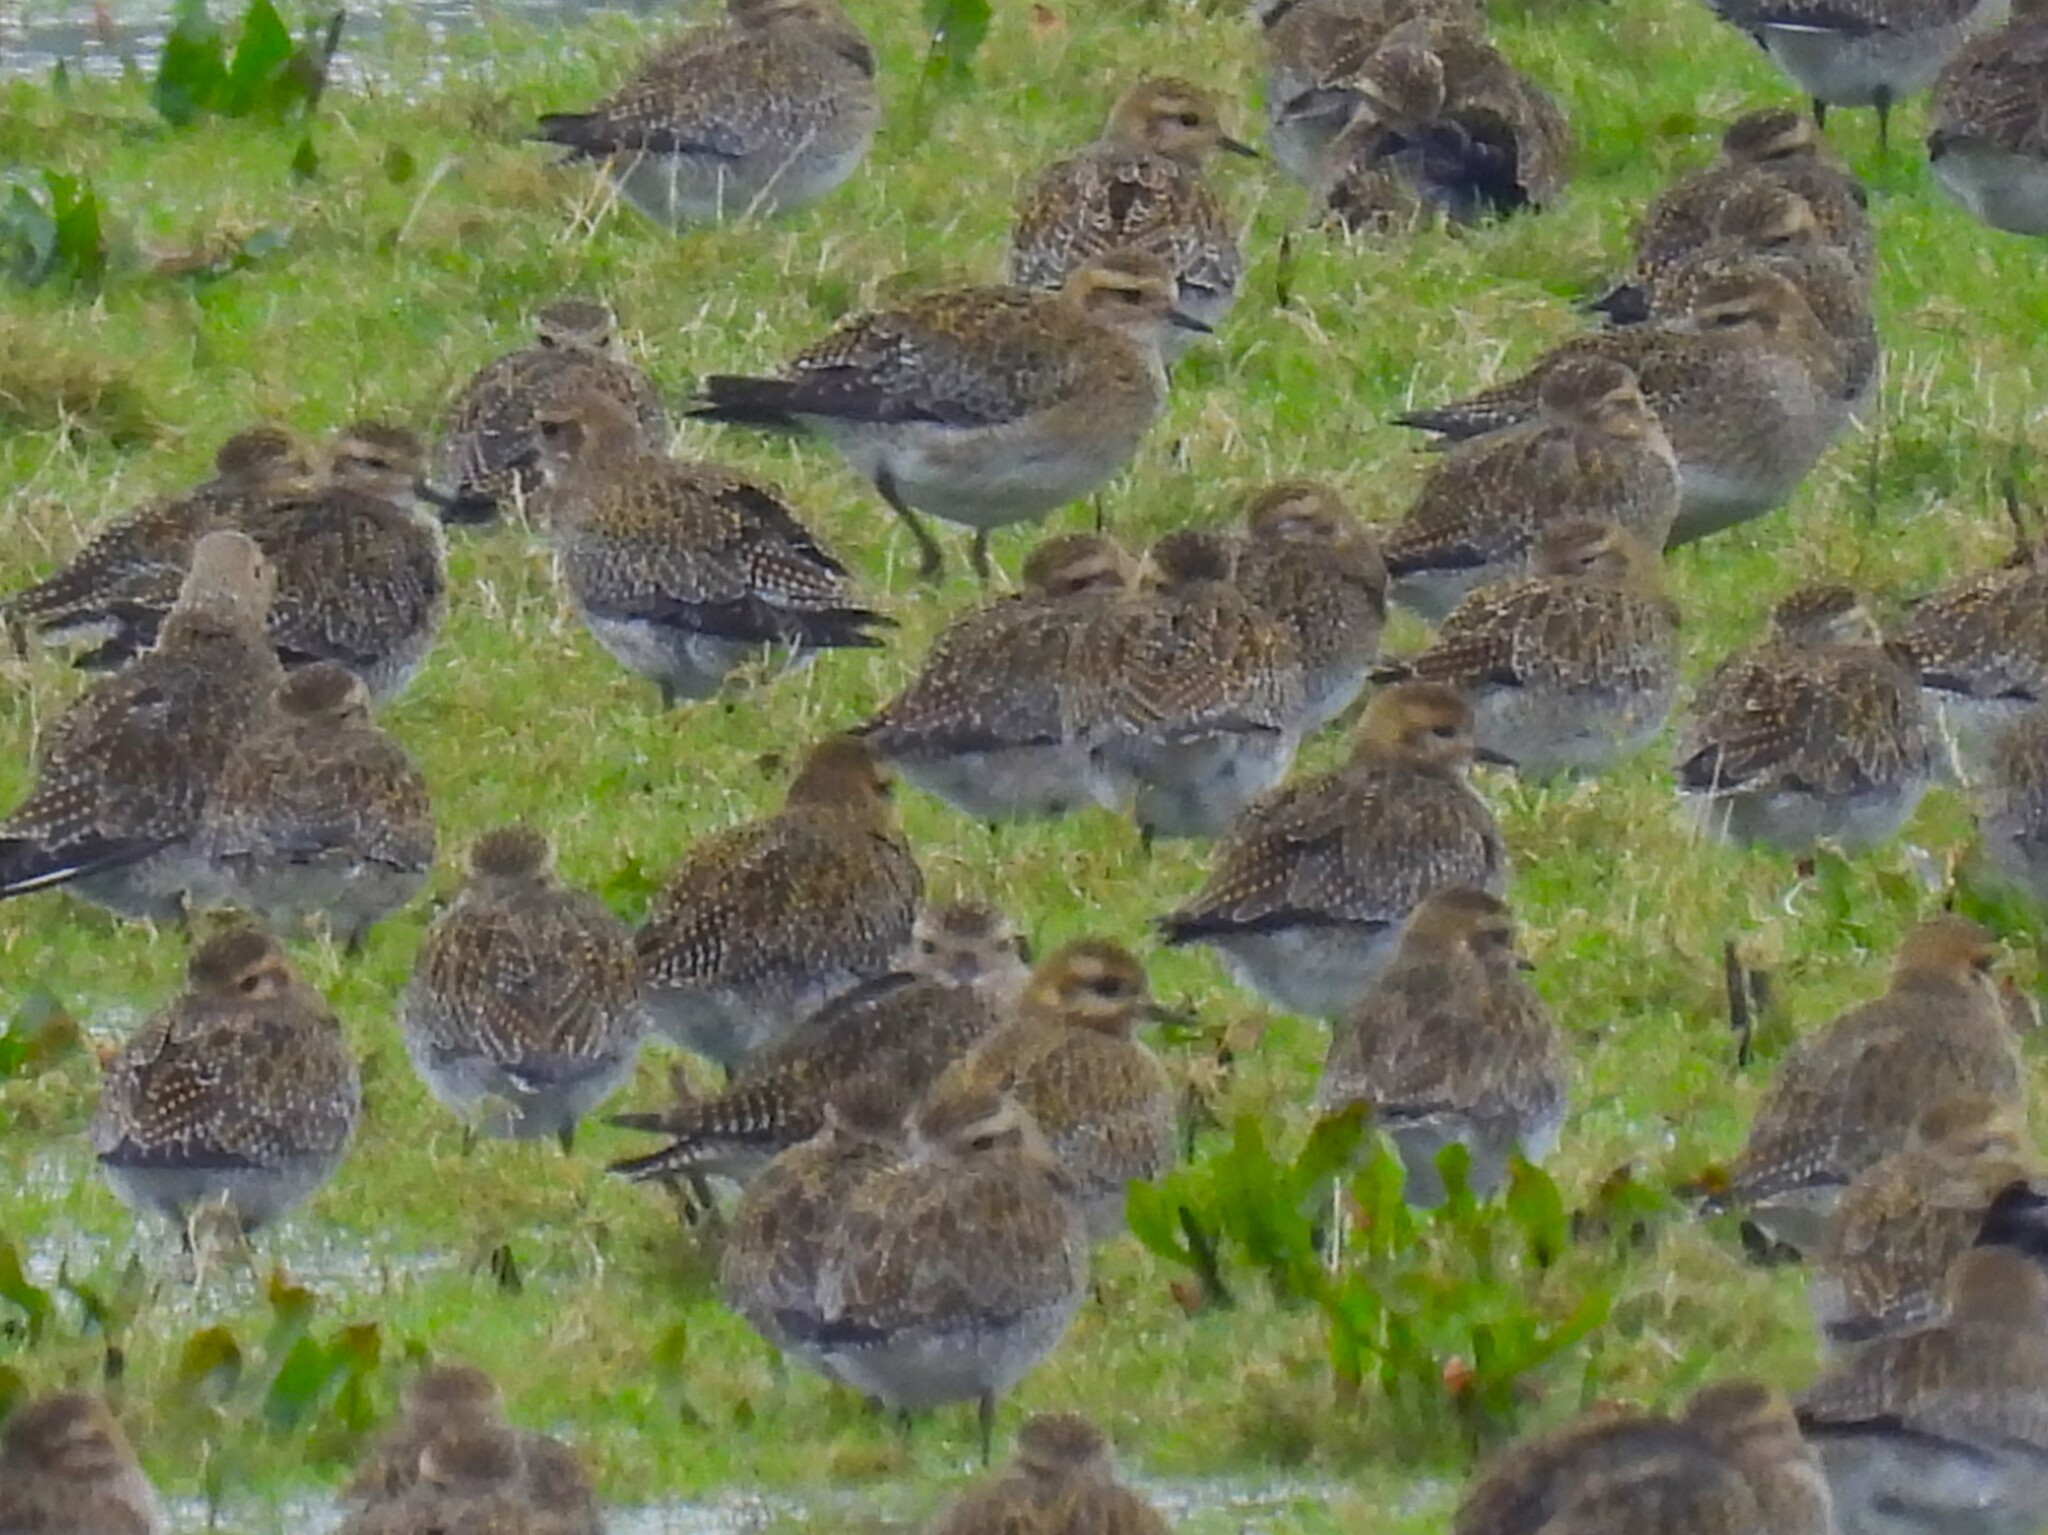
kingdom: Animalia
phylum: Chordata
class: Aves
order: Charadriiformes
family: Charadriidae
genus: Pluvialis
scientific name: Pluvialis apricaria
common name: European golden plover
